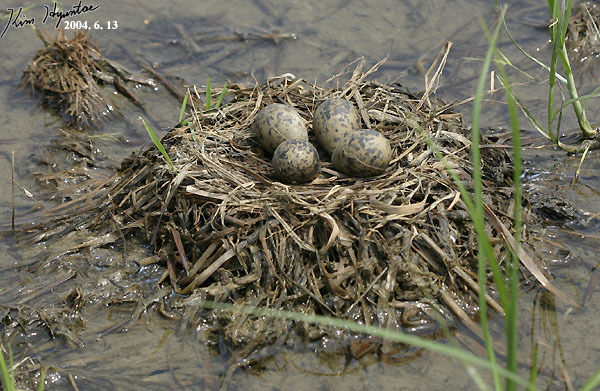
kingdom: Animalia
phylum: Chordata
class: Aves
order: Charadriiformes
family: Recurvirostridae
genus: Himantopus
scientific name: Himantopus himantopus
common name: Black-winged stilt
